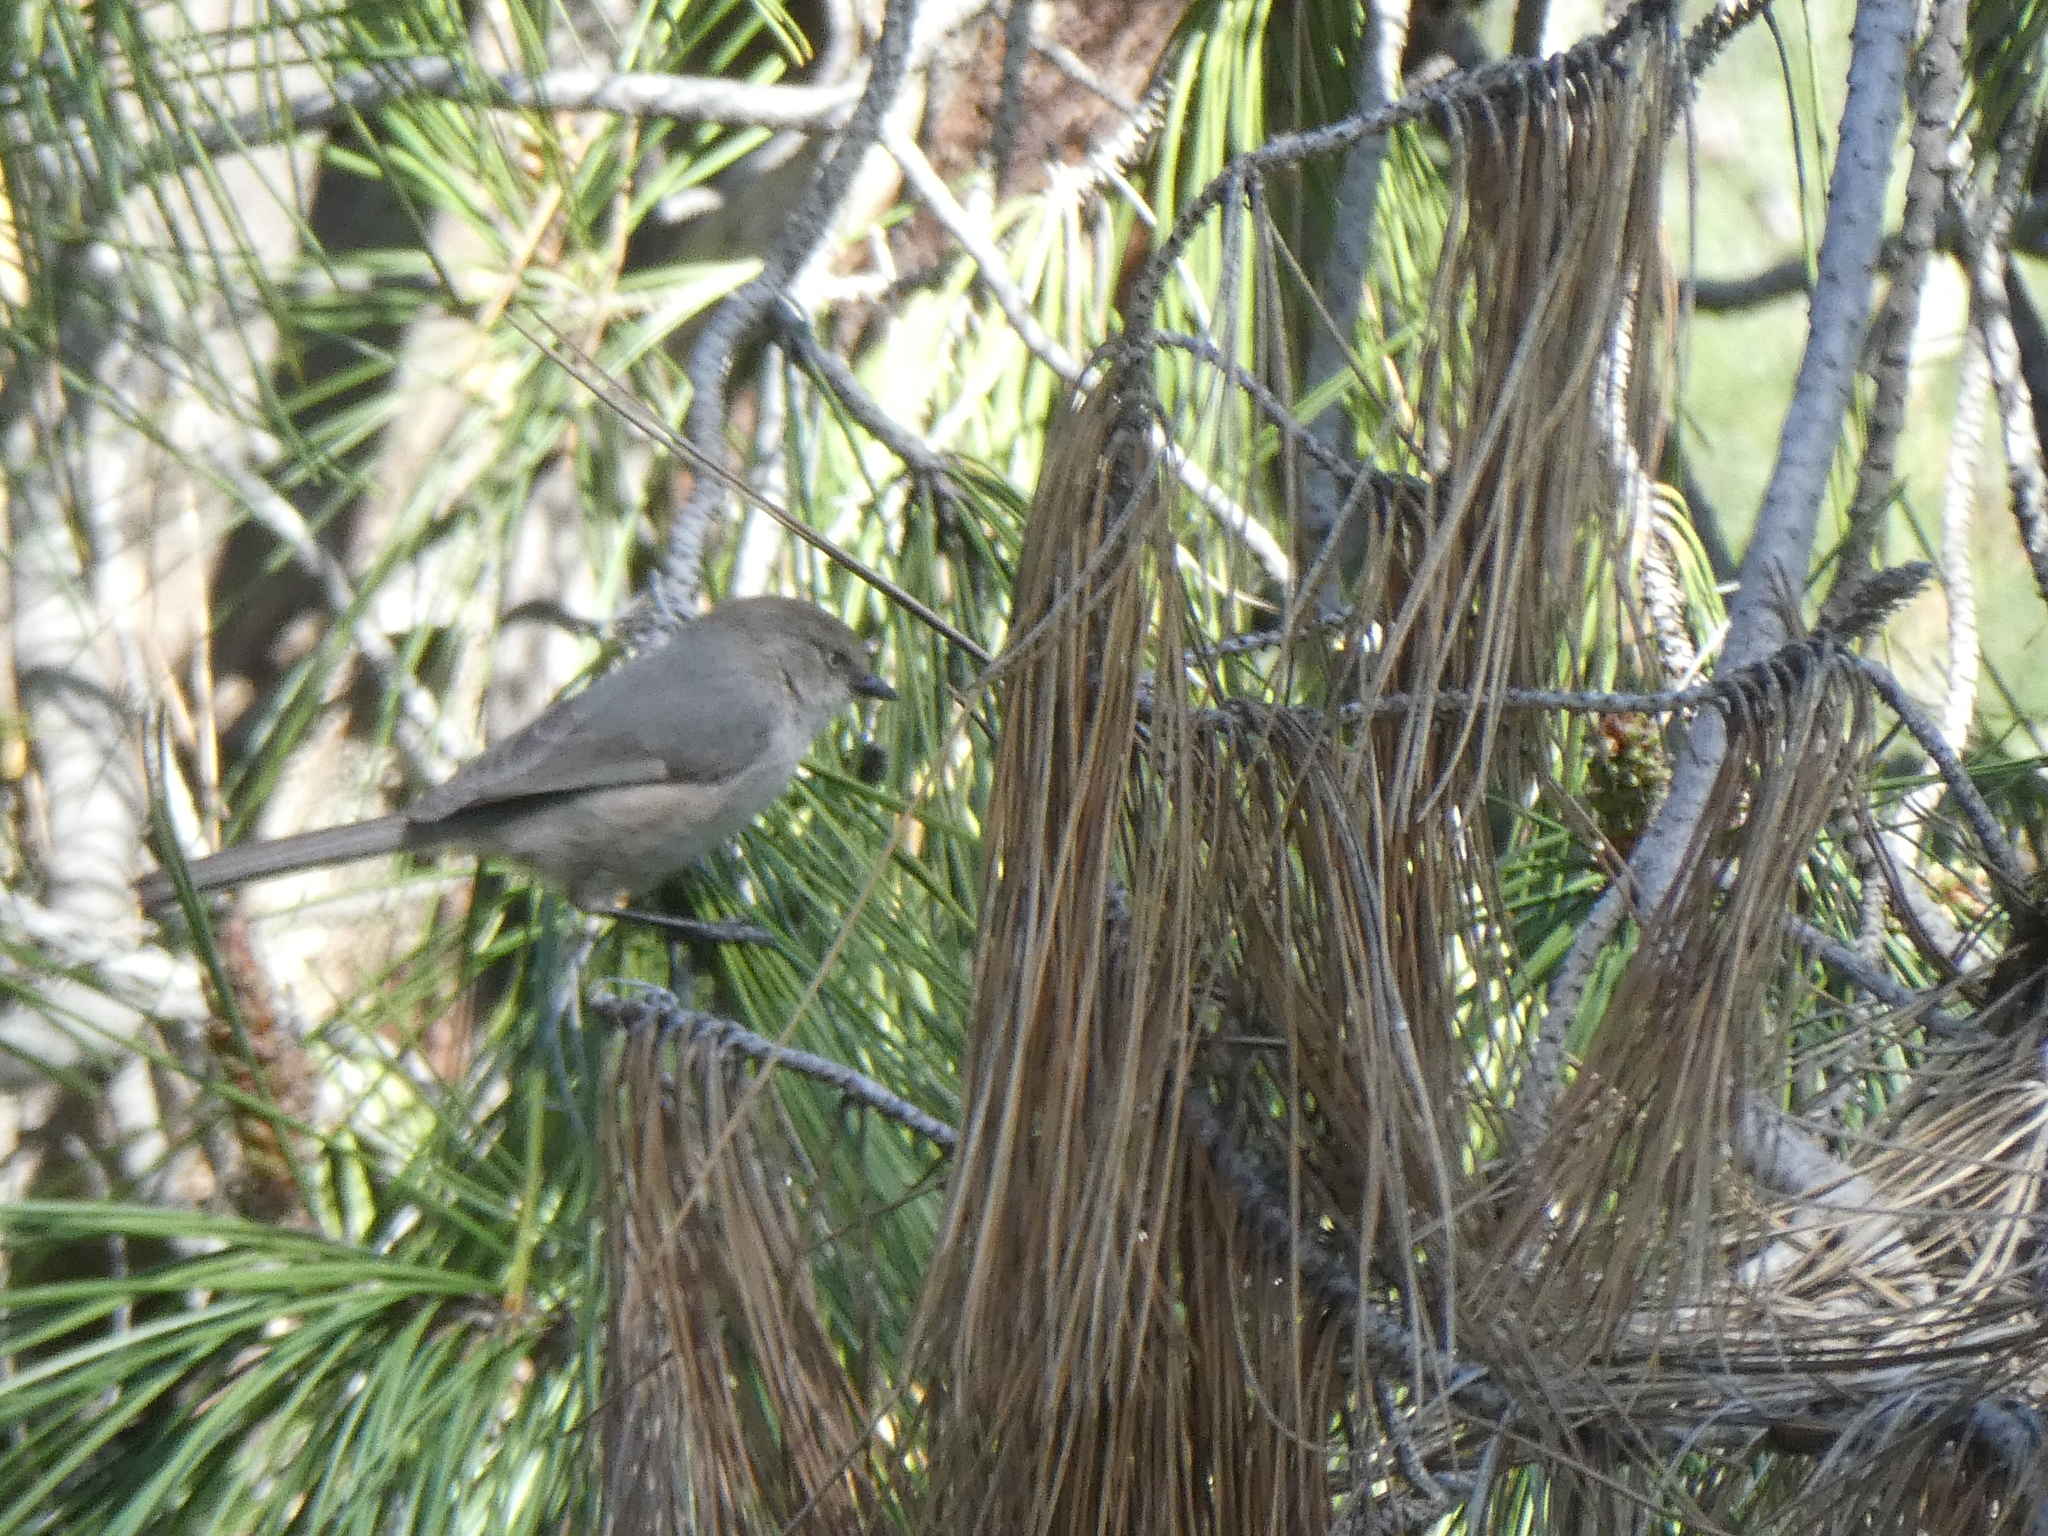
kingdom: Animalia
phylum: Chordata
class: Aves
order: Passeriformes
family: Aegithalidae
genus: Psaltriparus
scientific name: Psaltriparus minimus
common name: American bushtit
